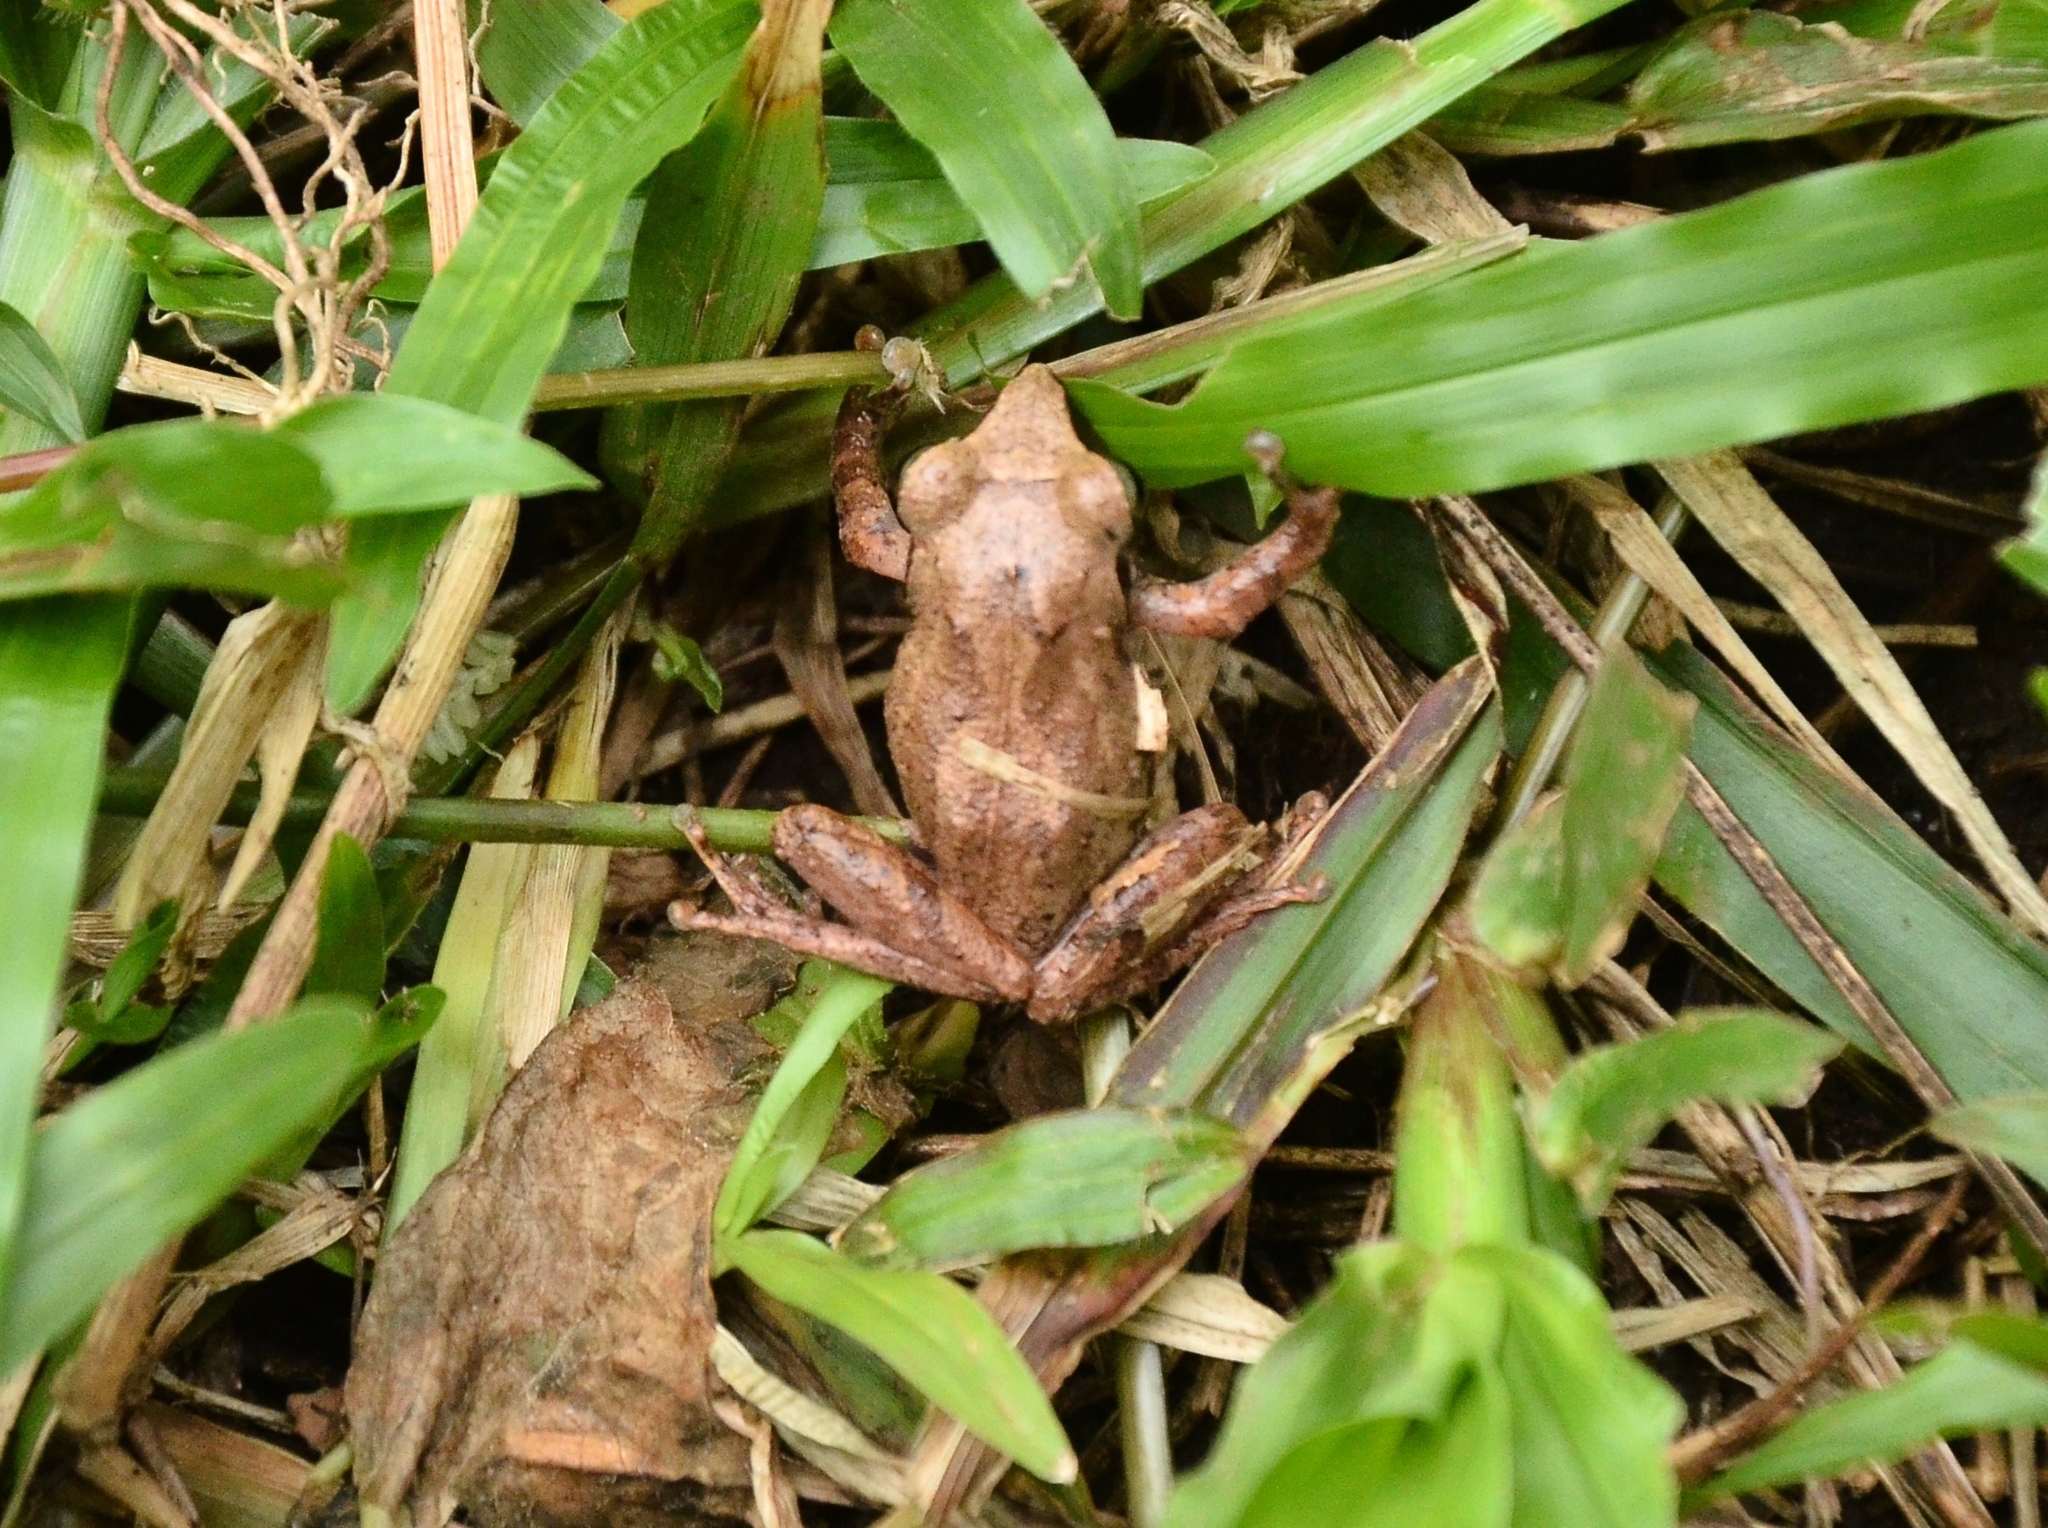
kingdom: Animalia
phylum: Chordata
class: Amphibia
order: Anura
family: Rhacophoridae
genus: Pseudophilautus
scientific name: Pseudophilautus wynaadensis
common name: Dark-eared bush frog
